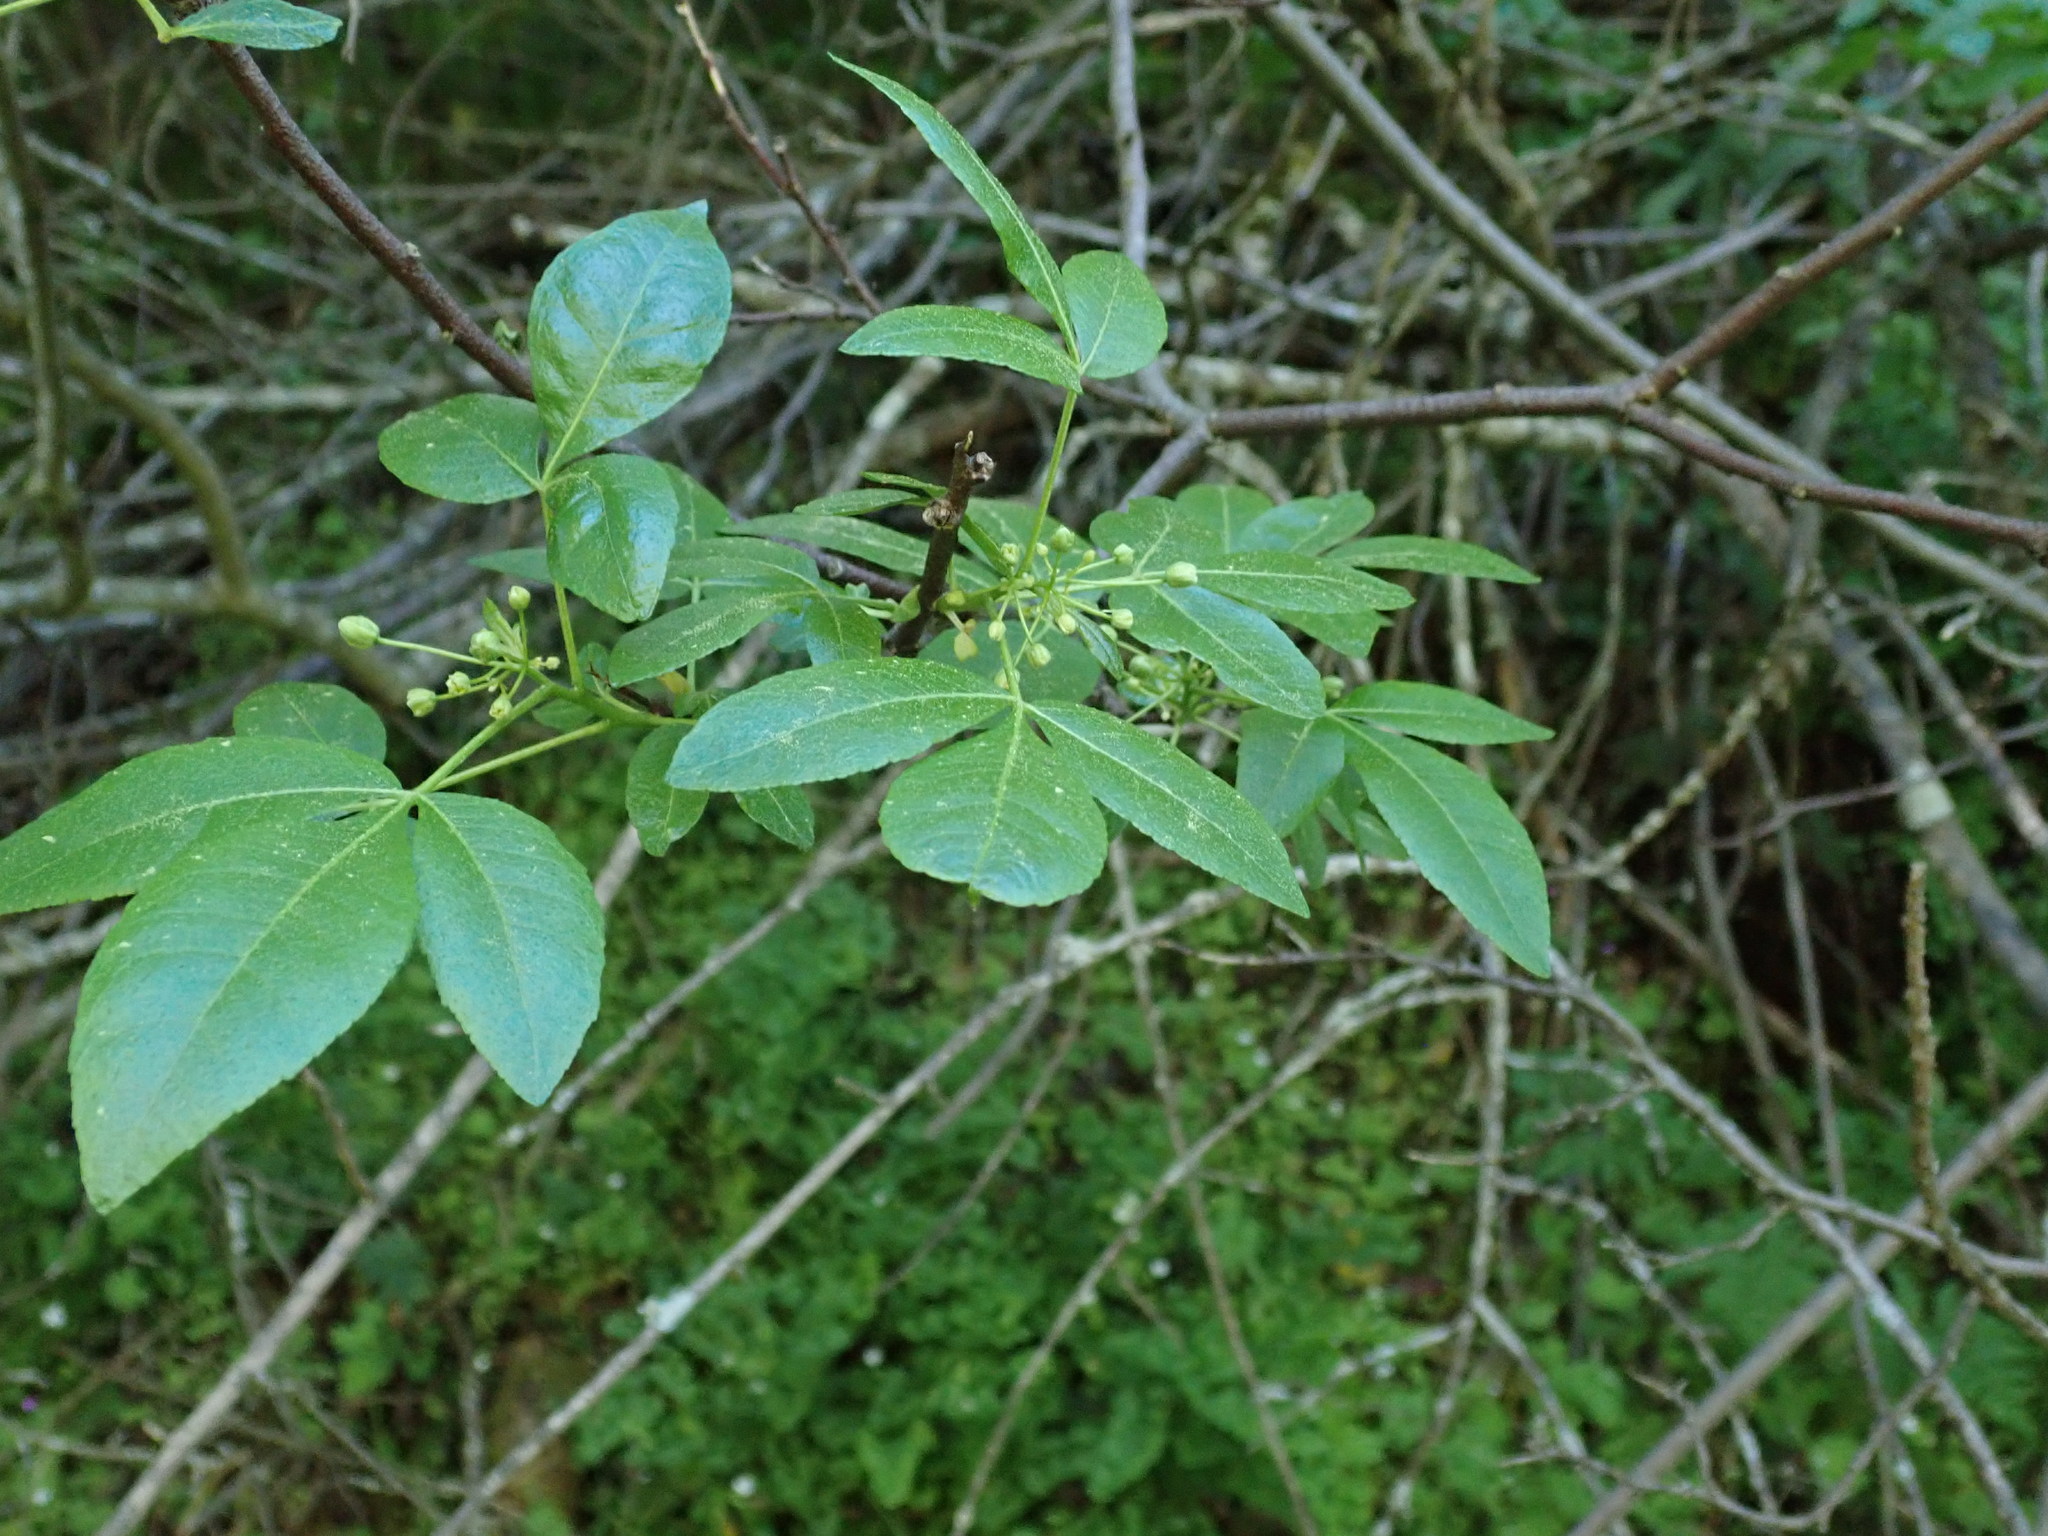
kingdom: Plantae
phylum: Tracheophyta
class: Magnoliopsida
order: Sapindales
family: Rutaceae
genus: Ptelea
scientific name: Ptelea crenulata
